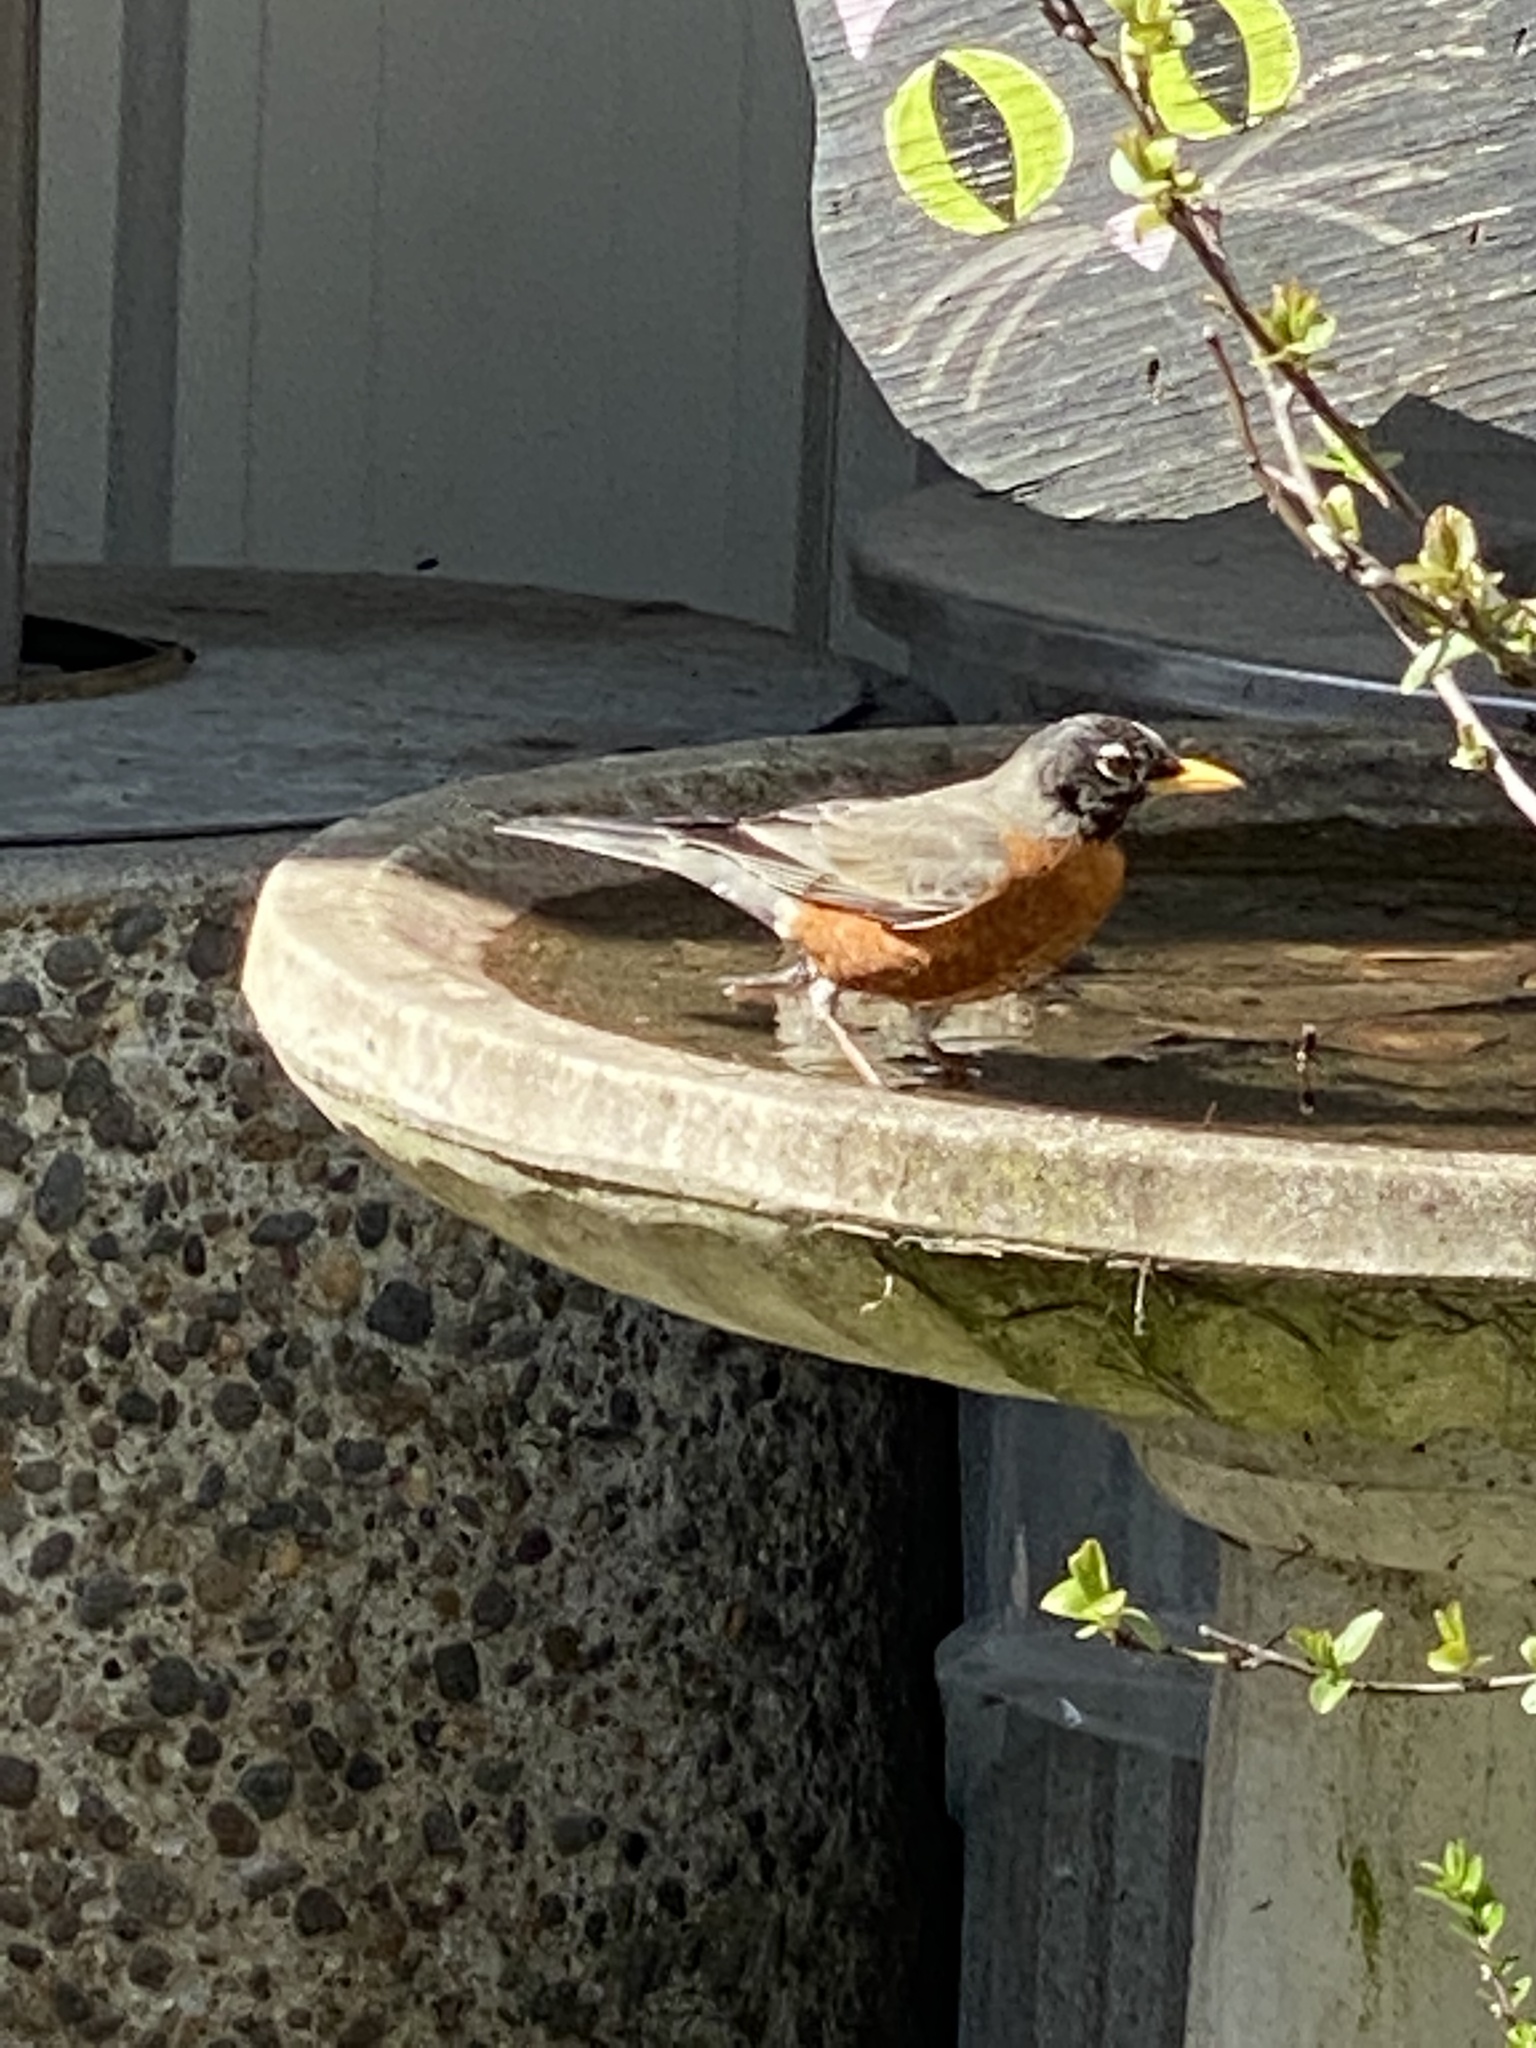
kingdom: Animalia
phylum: Chordata
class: Aves
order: Passeriformes
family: Turdidae
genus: Turdus
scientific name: Turdus migratorius
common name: American robin
